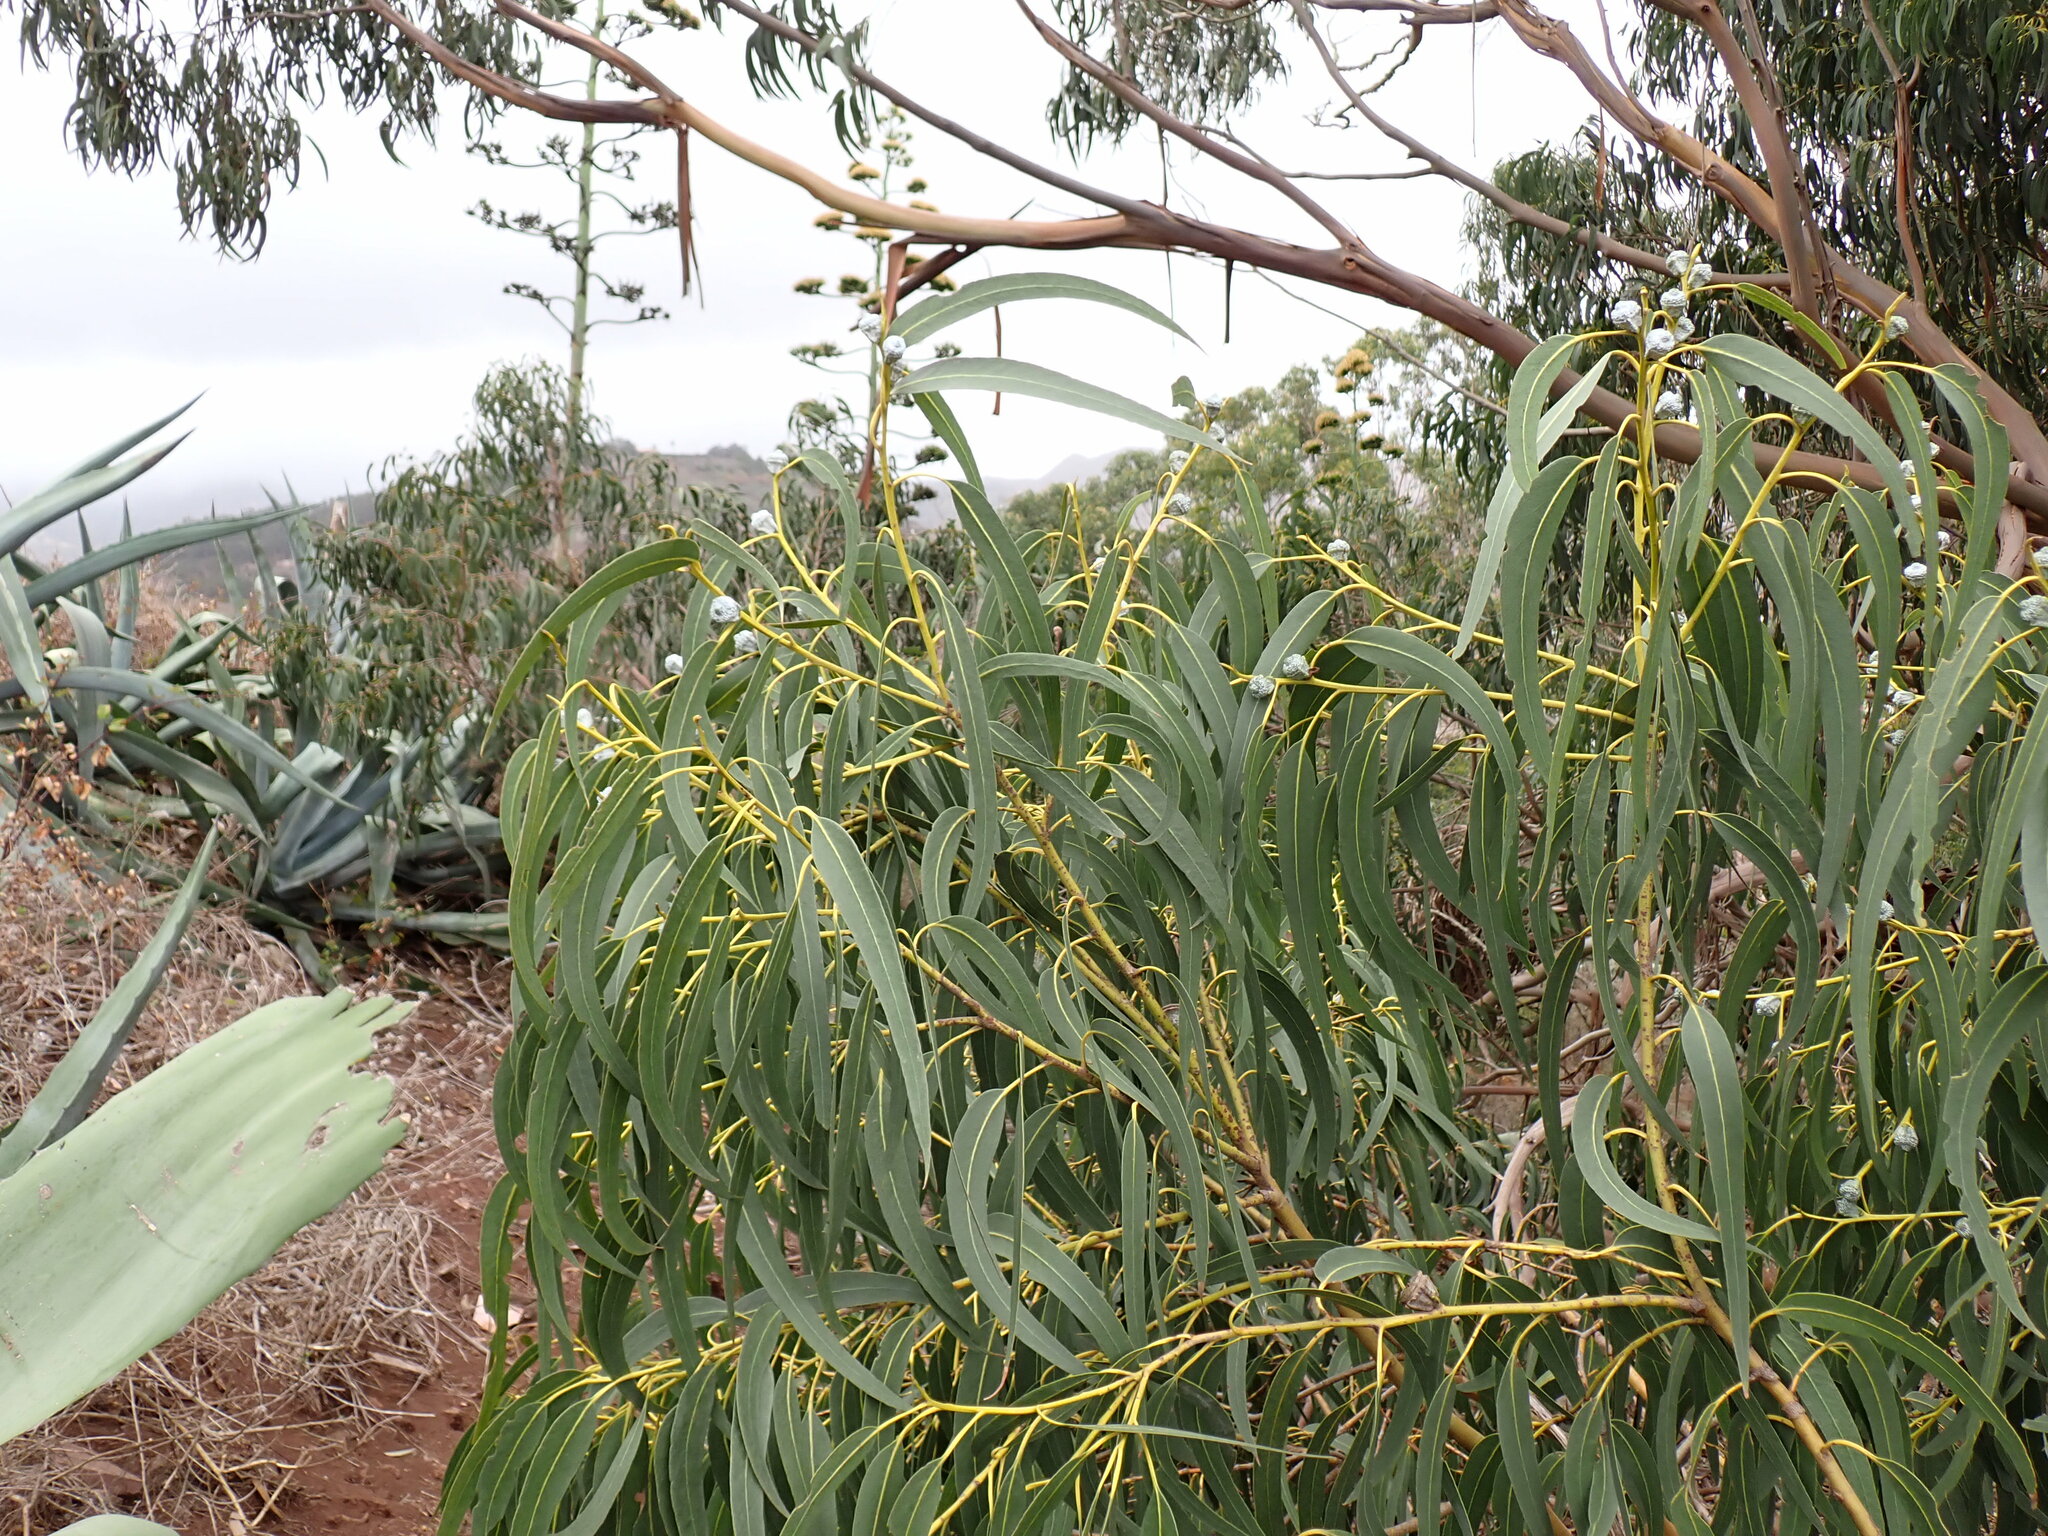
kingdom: Plantae
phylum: Tracheophyta
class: Magnoliopsida
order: Myrtales
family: Myrtaceae
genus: Eucalyptus
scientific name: Eucalyptus globulus
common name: Southern blue-gum
